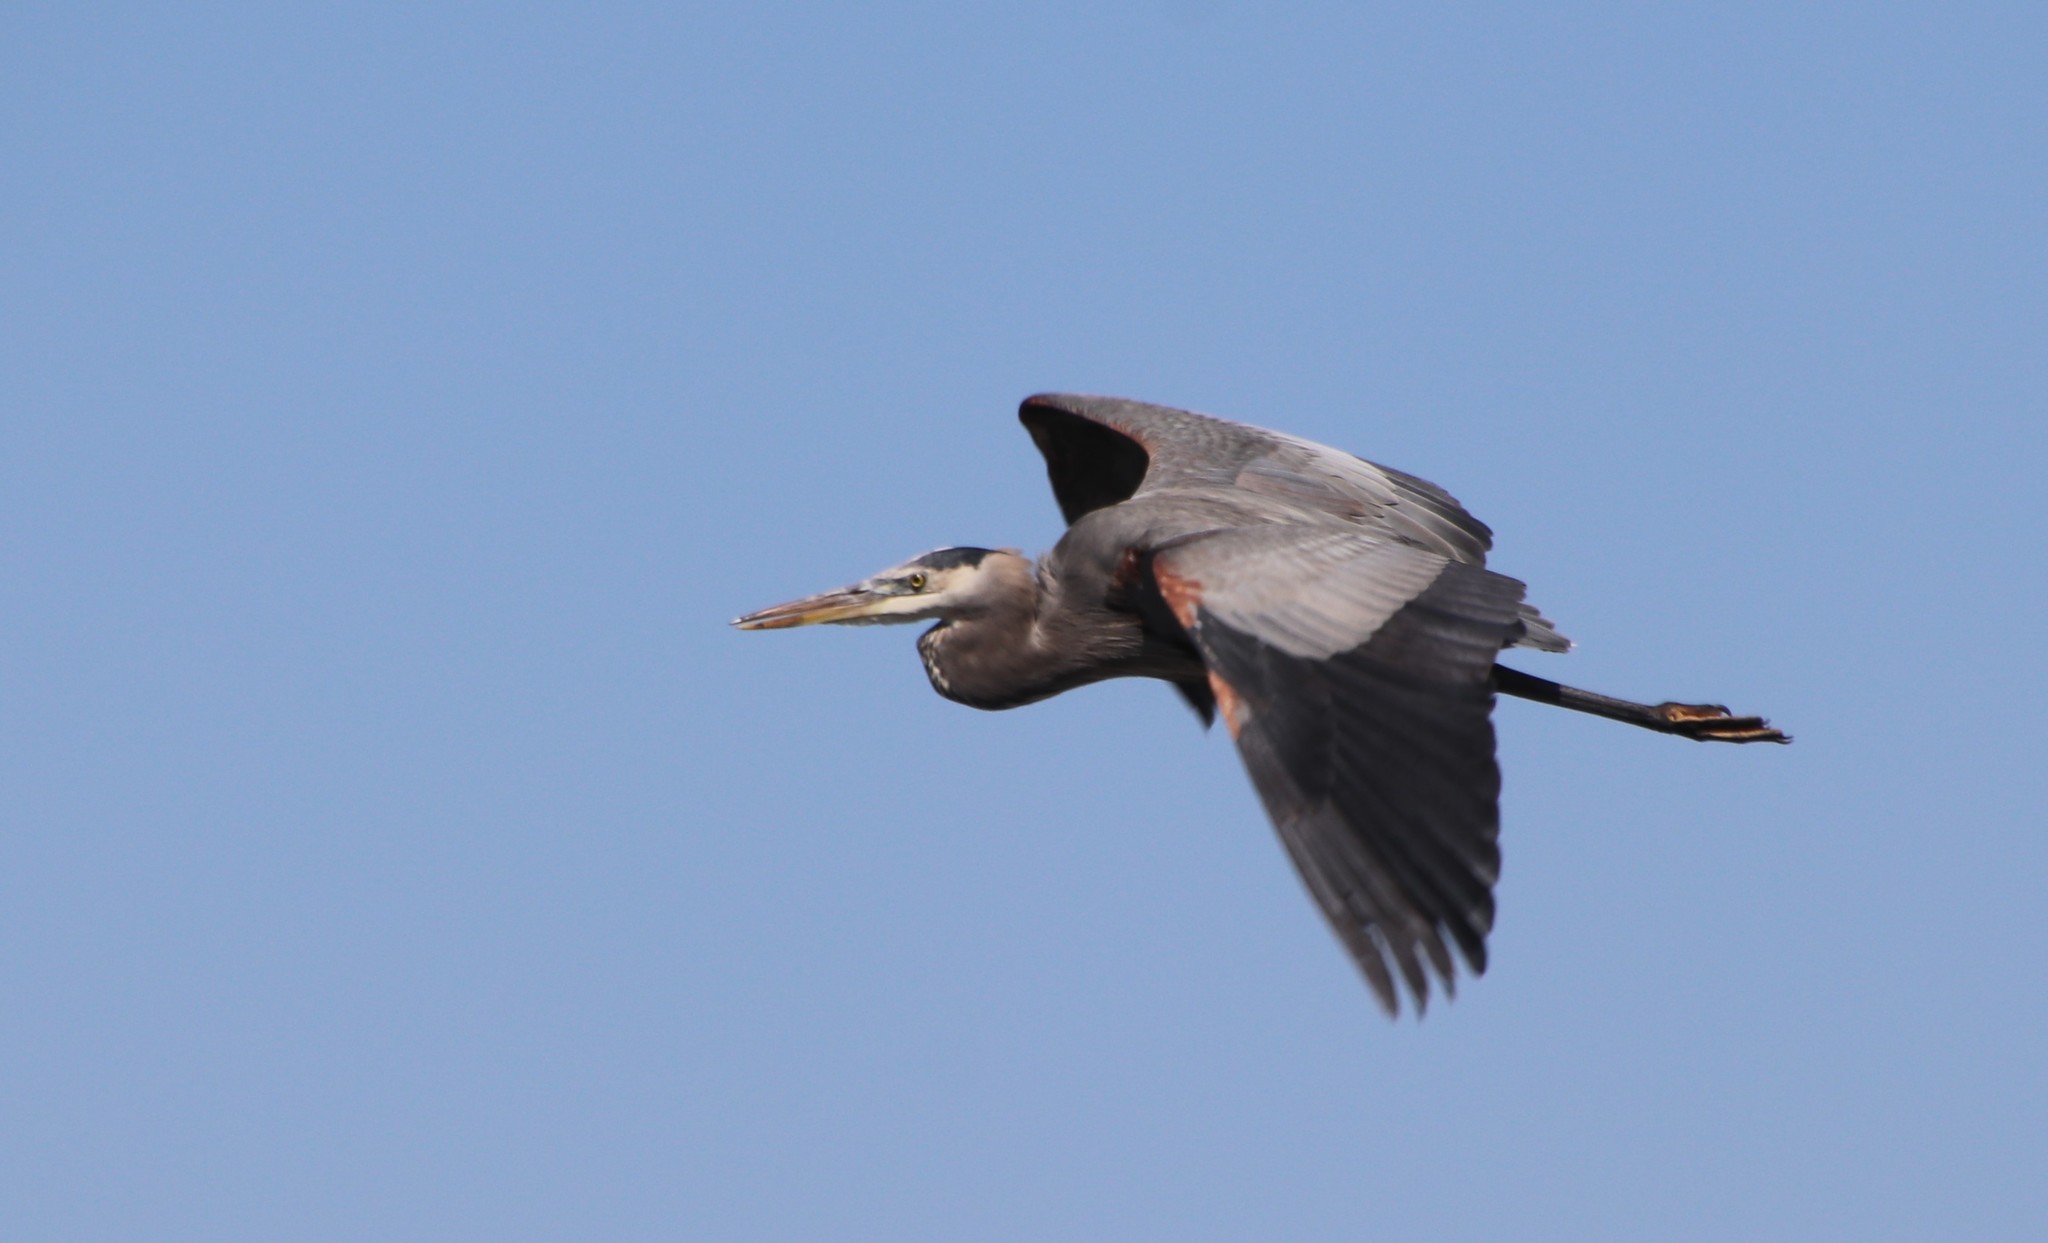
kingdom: Animalia
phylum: Chordata
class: Aves
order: Pelecaniformes
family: Ardeidae
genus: Ardea
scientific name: Ardea herodias
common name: Great blue heron
